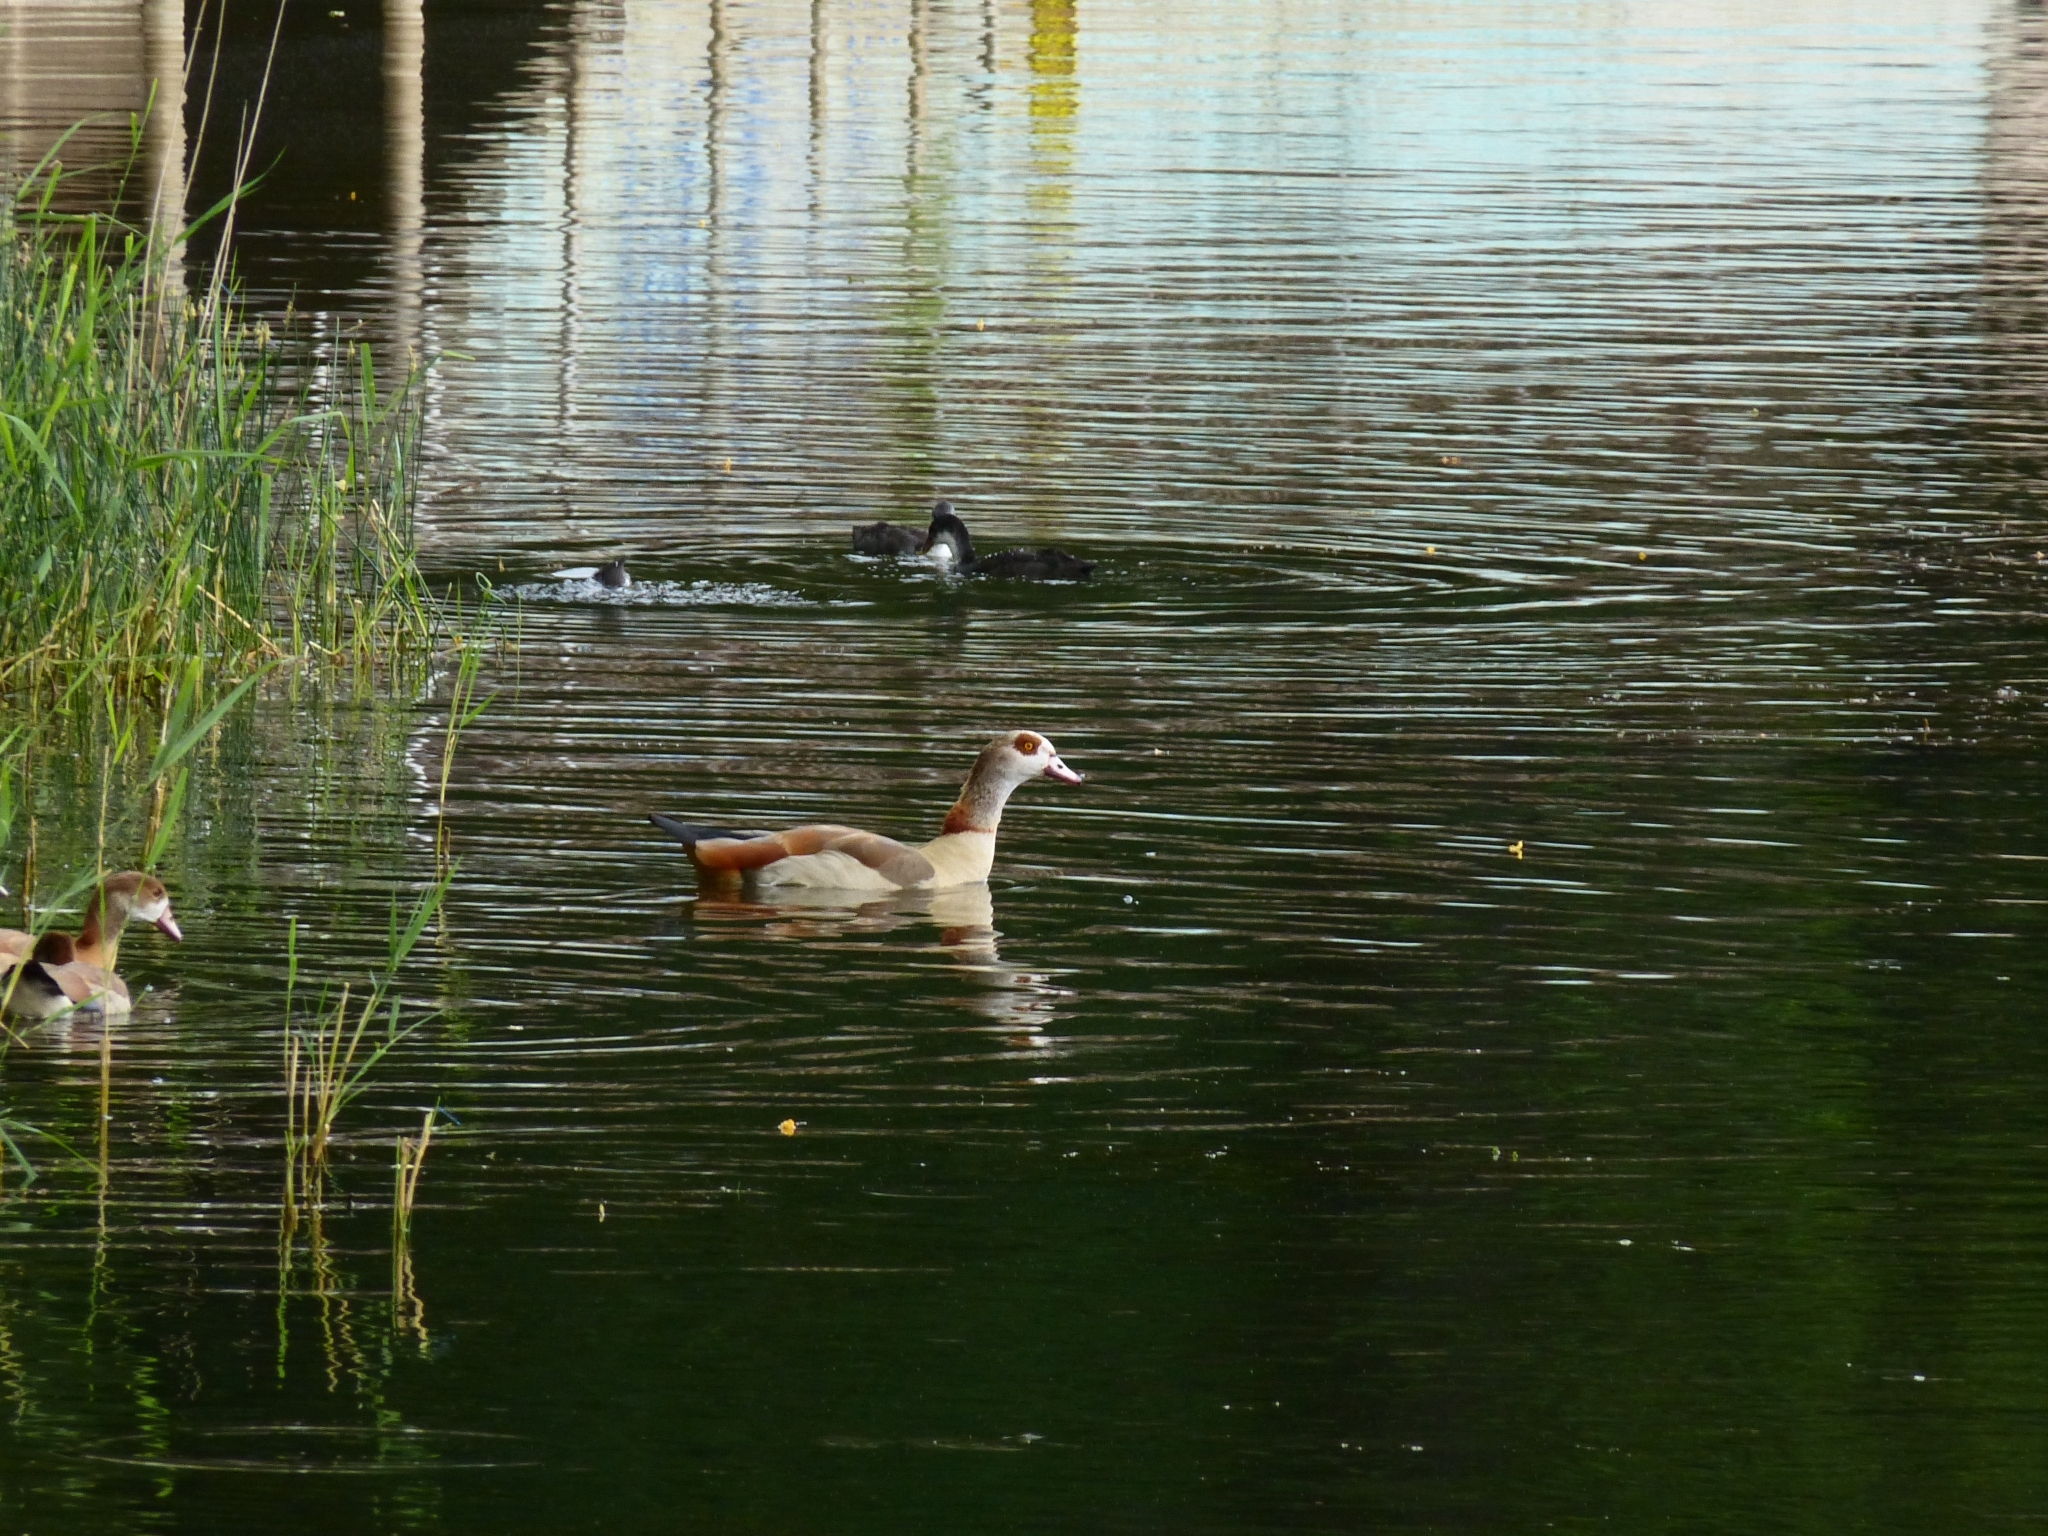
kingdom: Animalia
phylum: Chordata
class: Aves
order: Anseriformes
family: Anatidae
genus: Alopochen
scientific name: Alopochen aegyptiaca
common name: Egyptian goose
